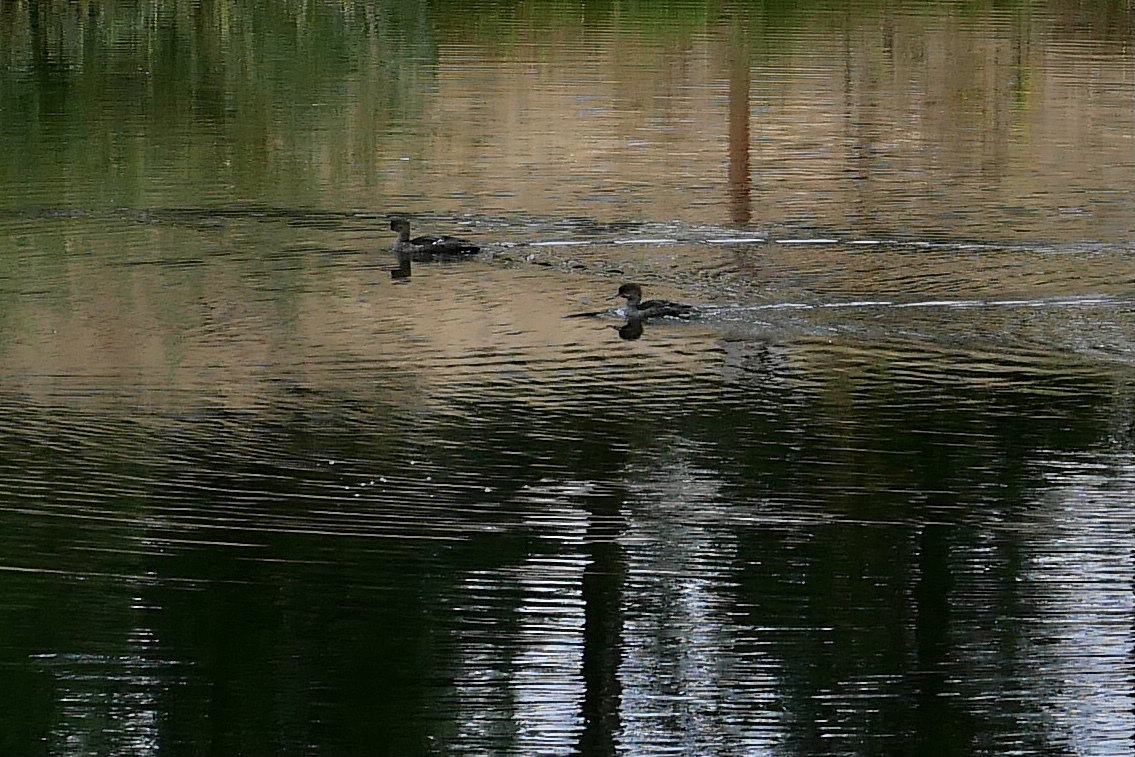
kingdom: Animalia
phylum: Chordata
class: Aves
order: Anseriformes
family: Anatidae
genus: Lophodytes
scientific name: Lophodytes cucullatus
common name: Hooded merganser
